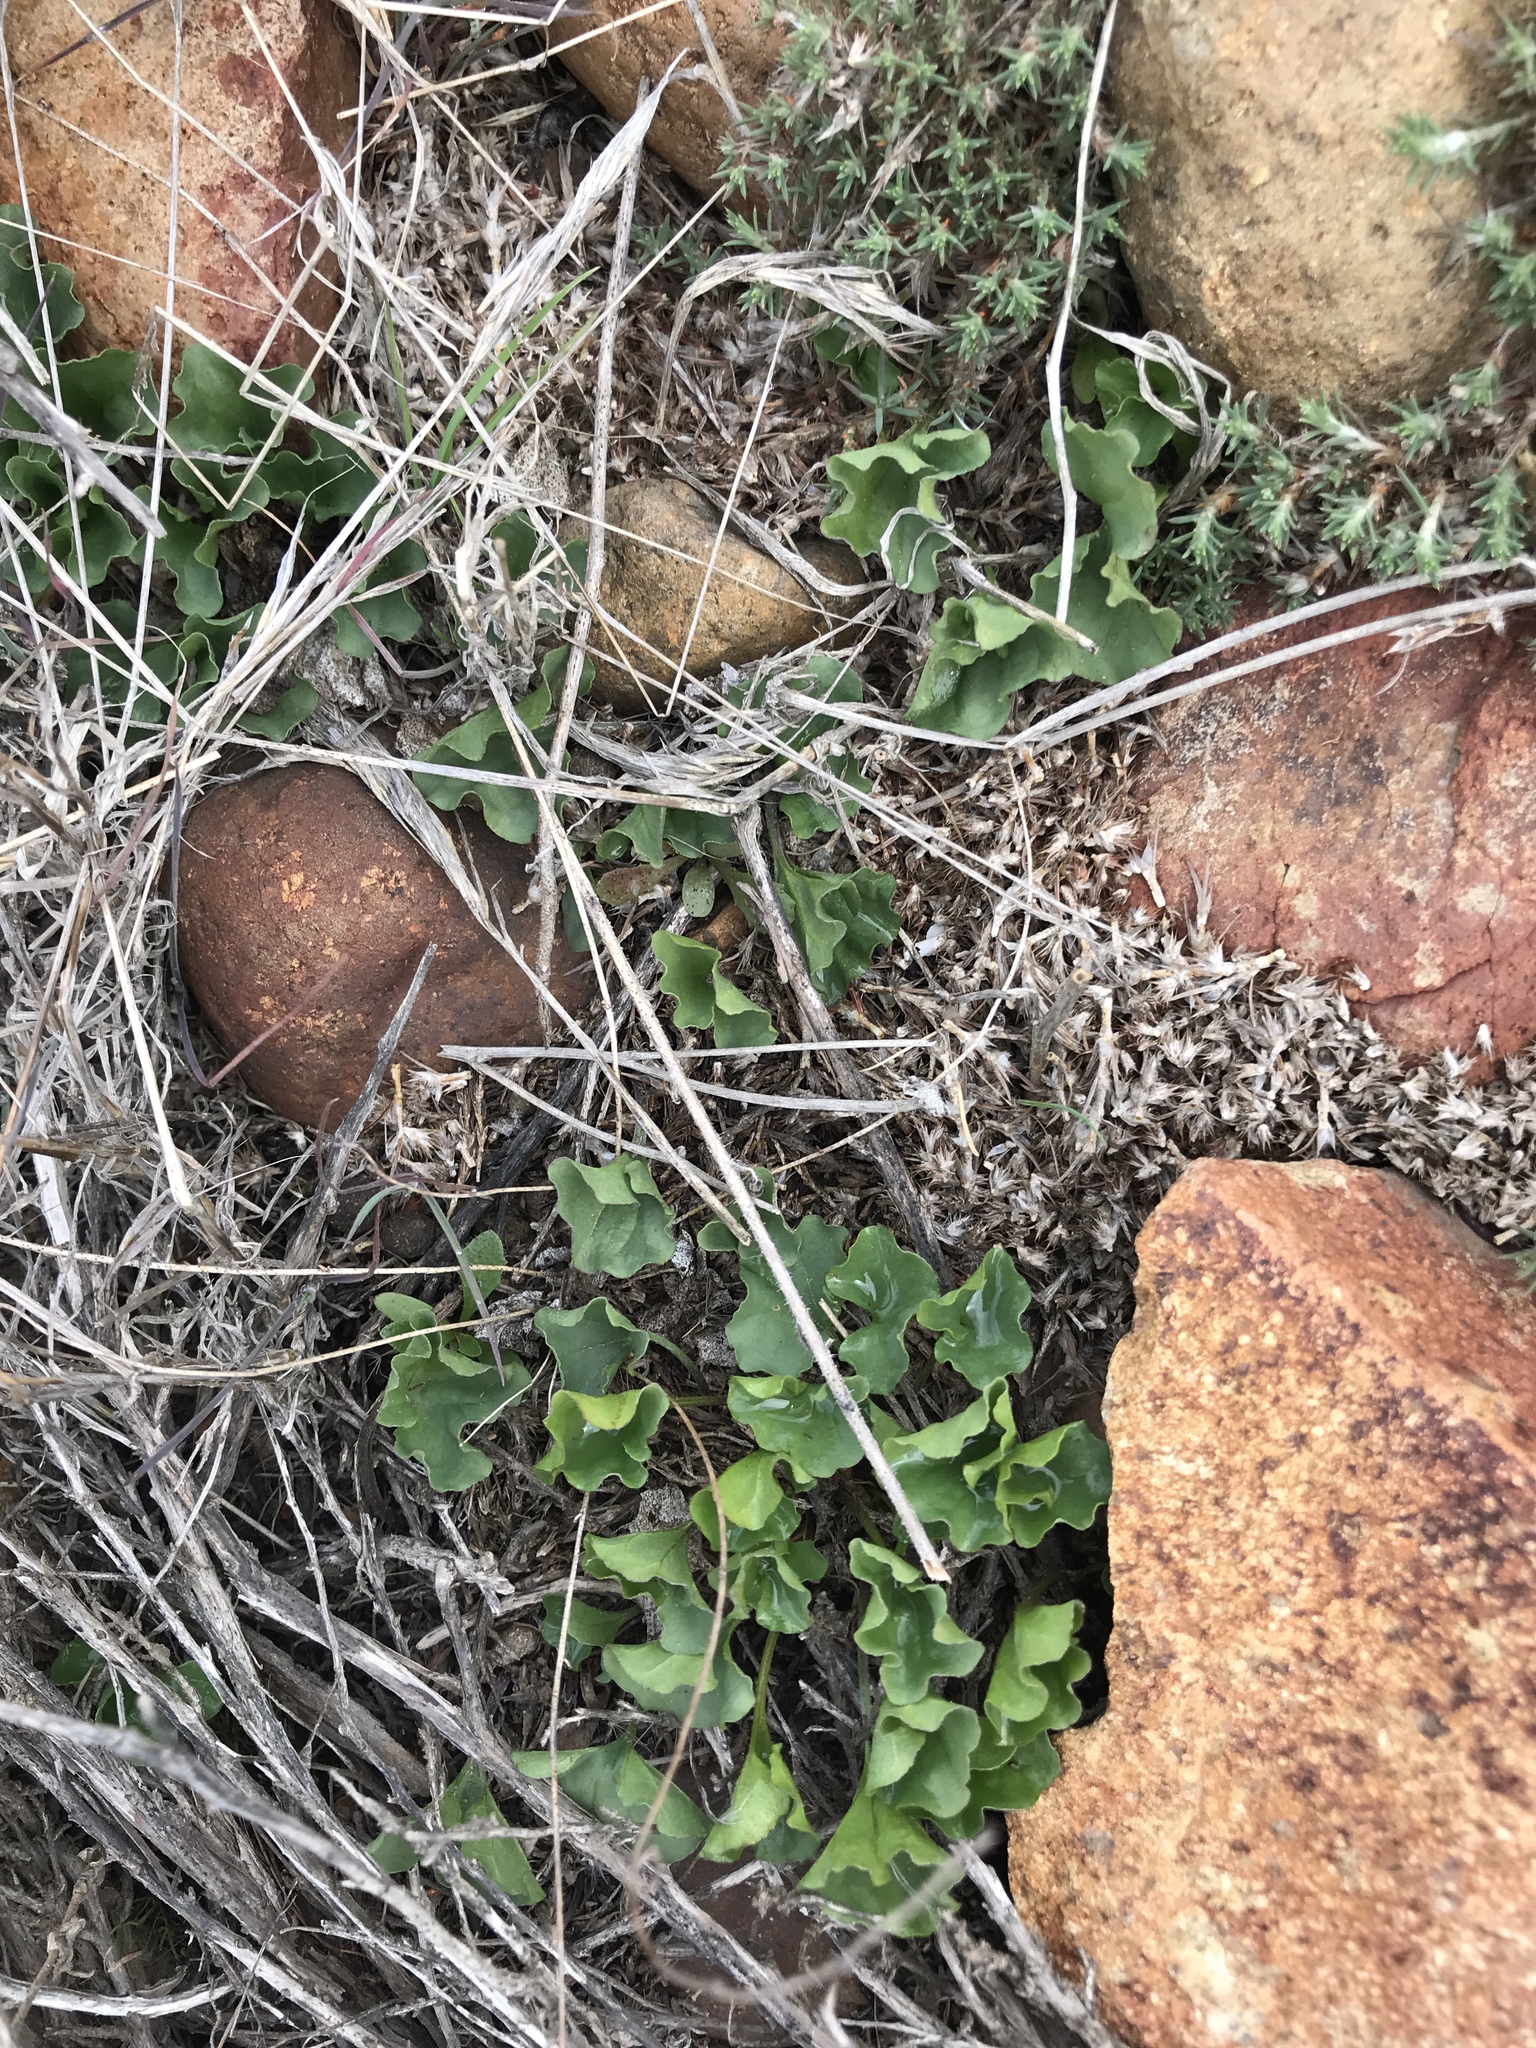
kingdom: Plantae
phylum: Tracheophyta
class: Magnoliopsida
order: Solanales
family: Convolvulaceae
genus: Dichondra
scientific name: Dichondra occidentalis
